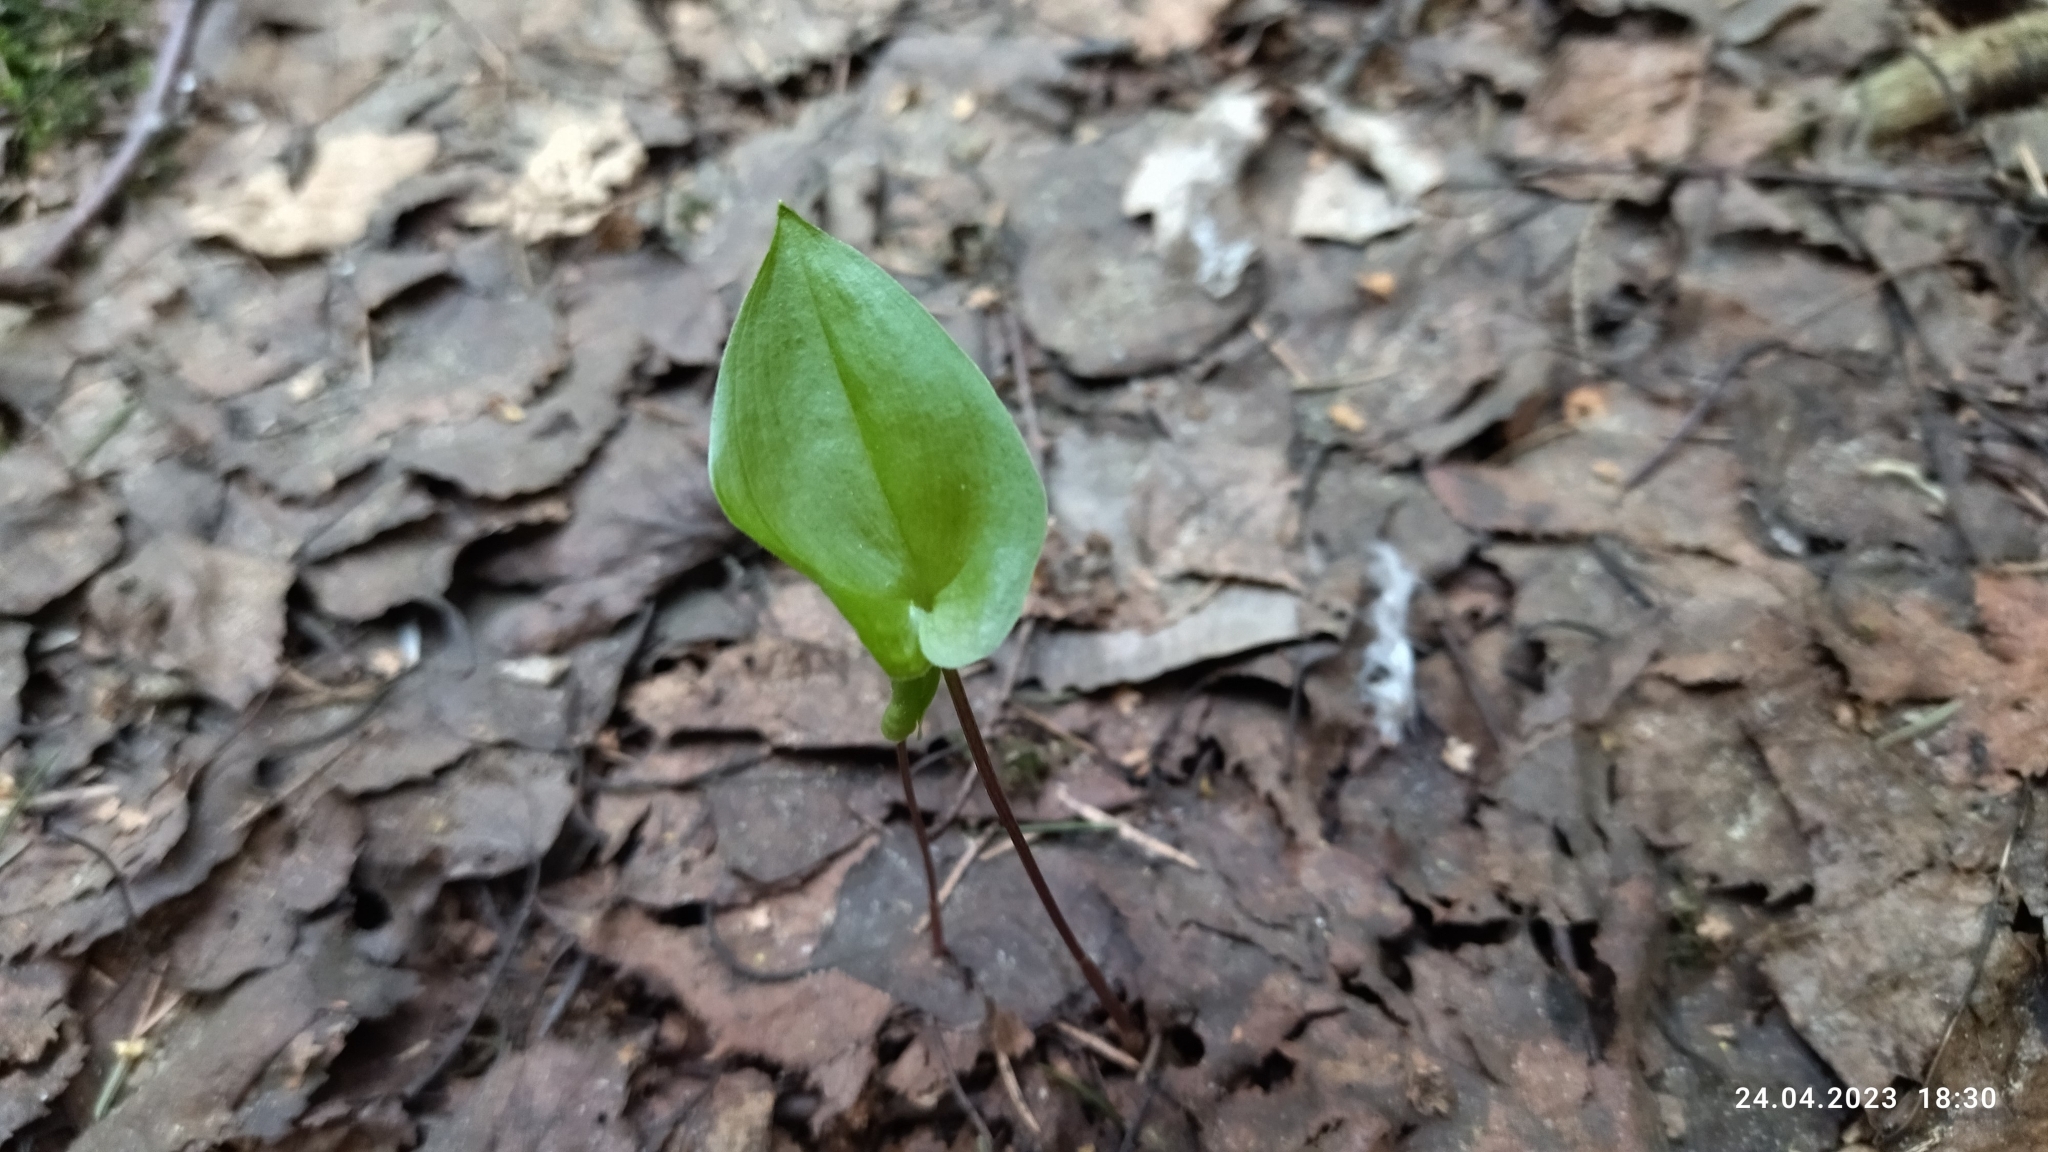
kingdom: Plantae
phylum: Tracheophyta
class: Liliopsida
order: Asparagales
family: Asparagaceae
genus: Maianthemum
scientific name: Maianthemum bifolium
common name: May lily
